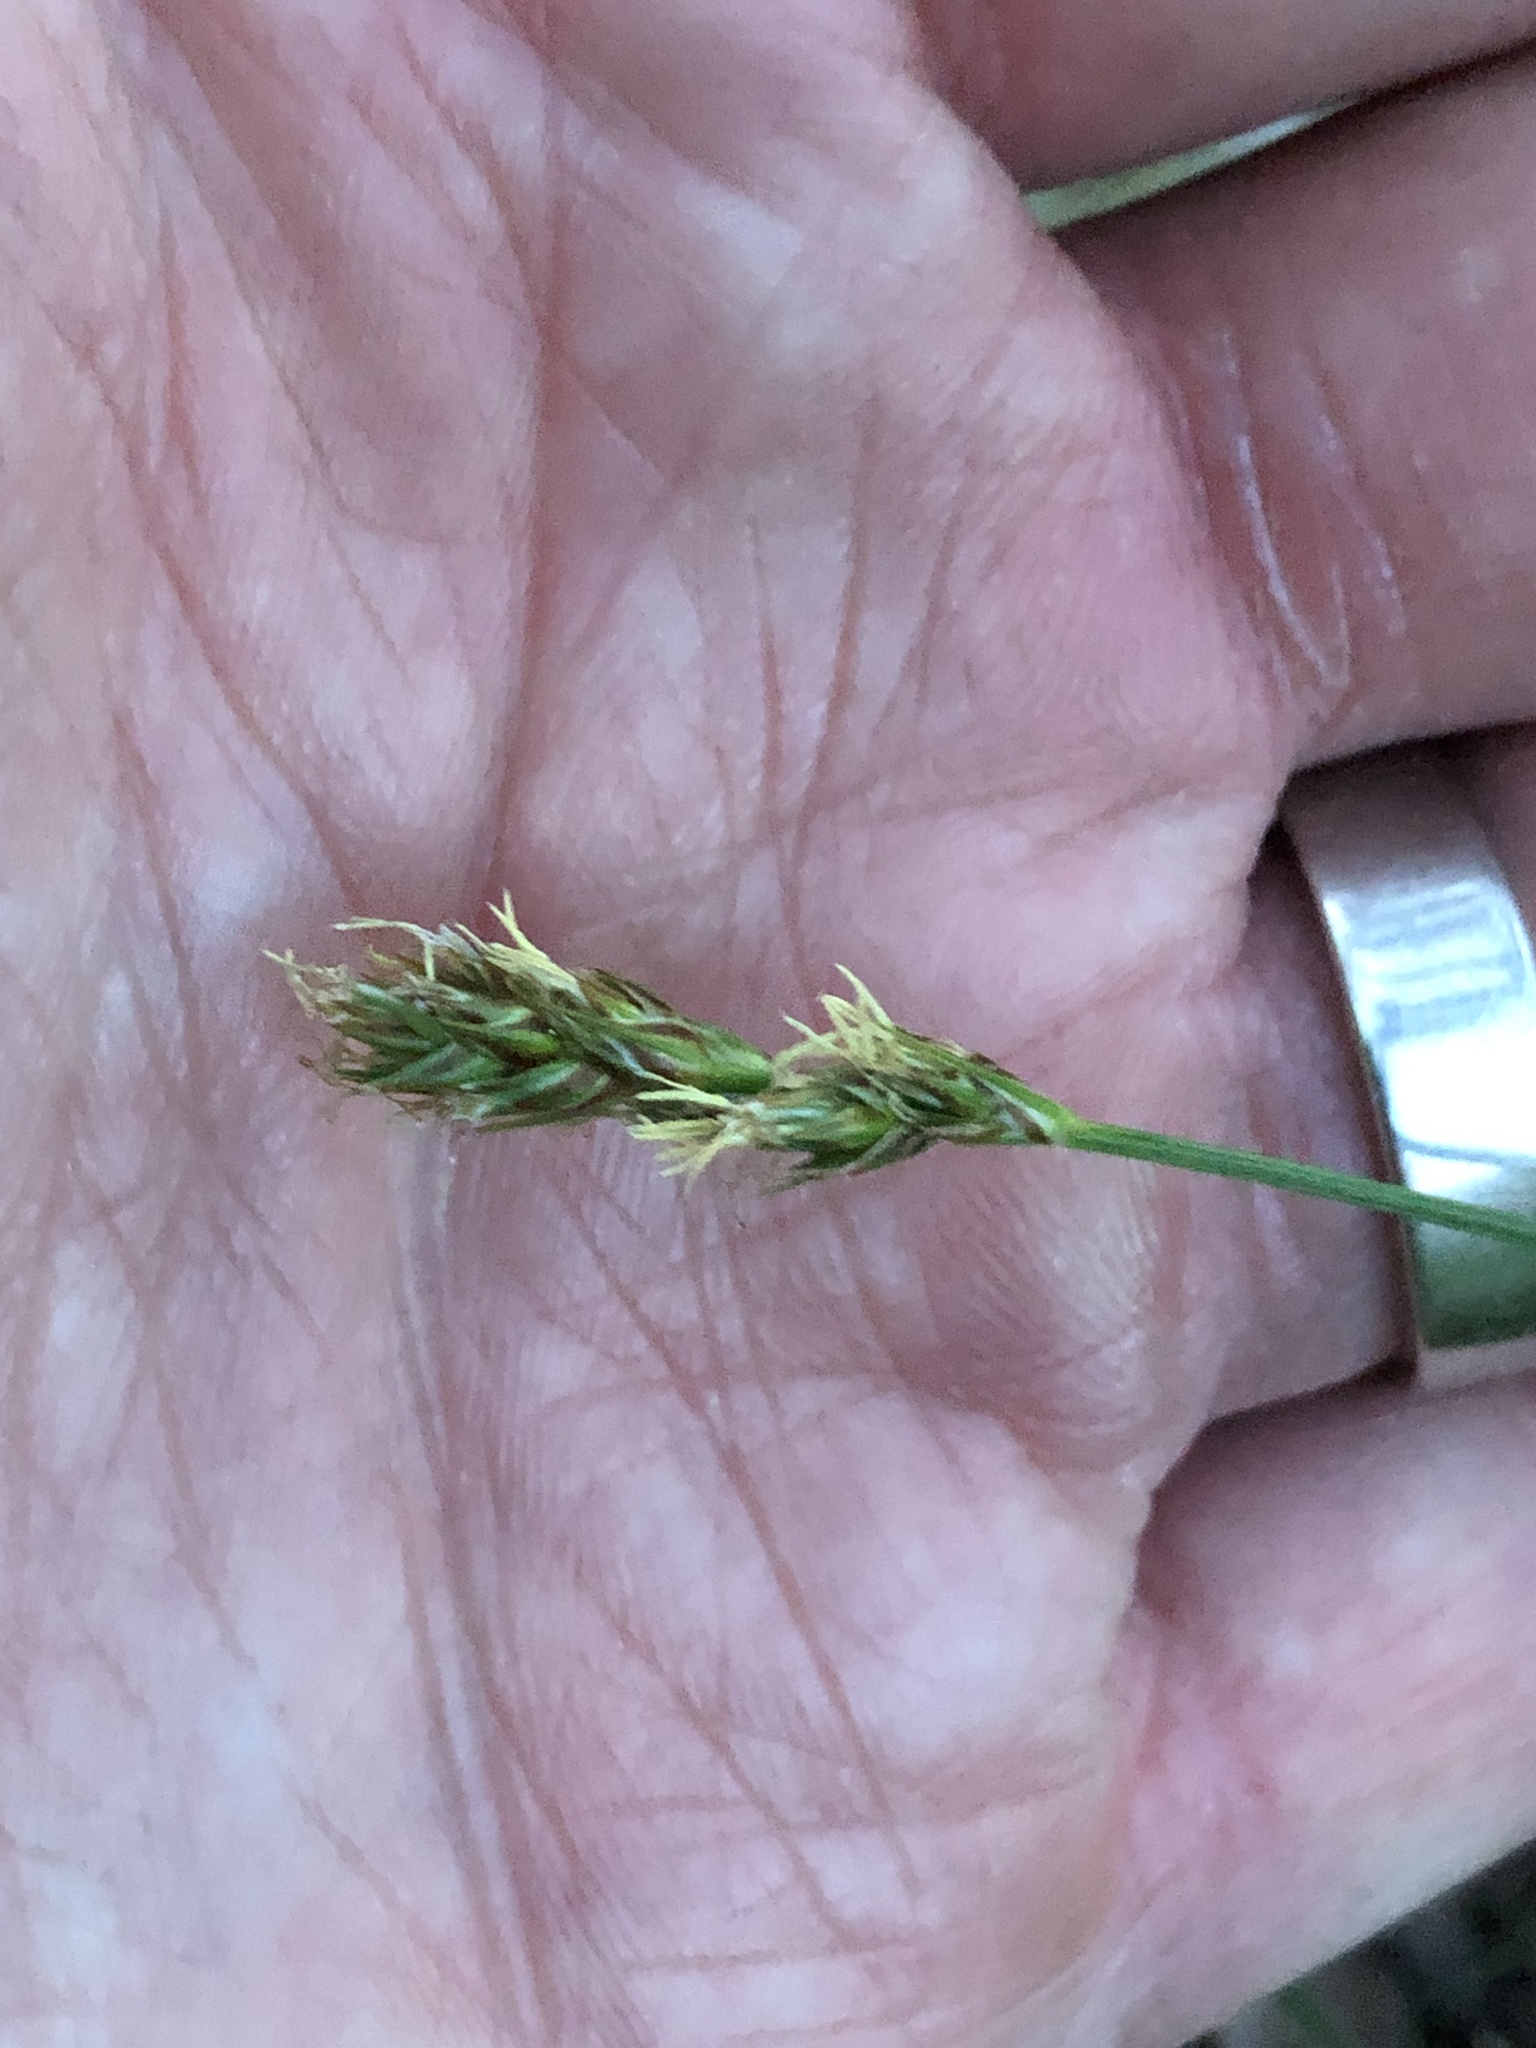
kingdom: Plantae
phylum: Tracheophyta
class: Liliopsida
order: Poales
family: Cyperaceae
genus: Carex
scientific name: Carex spicata
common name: Spiked sedge
